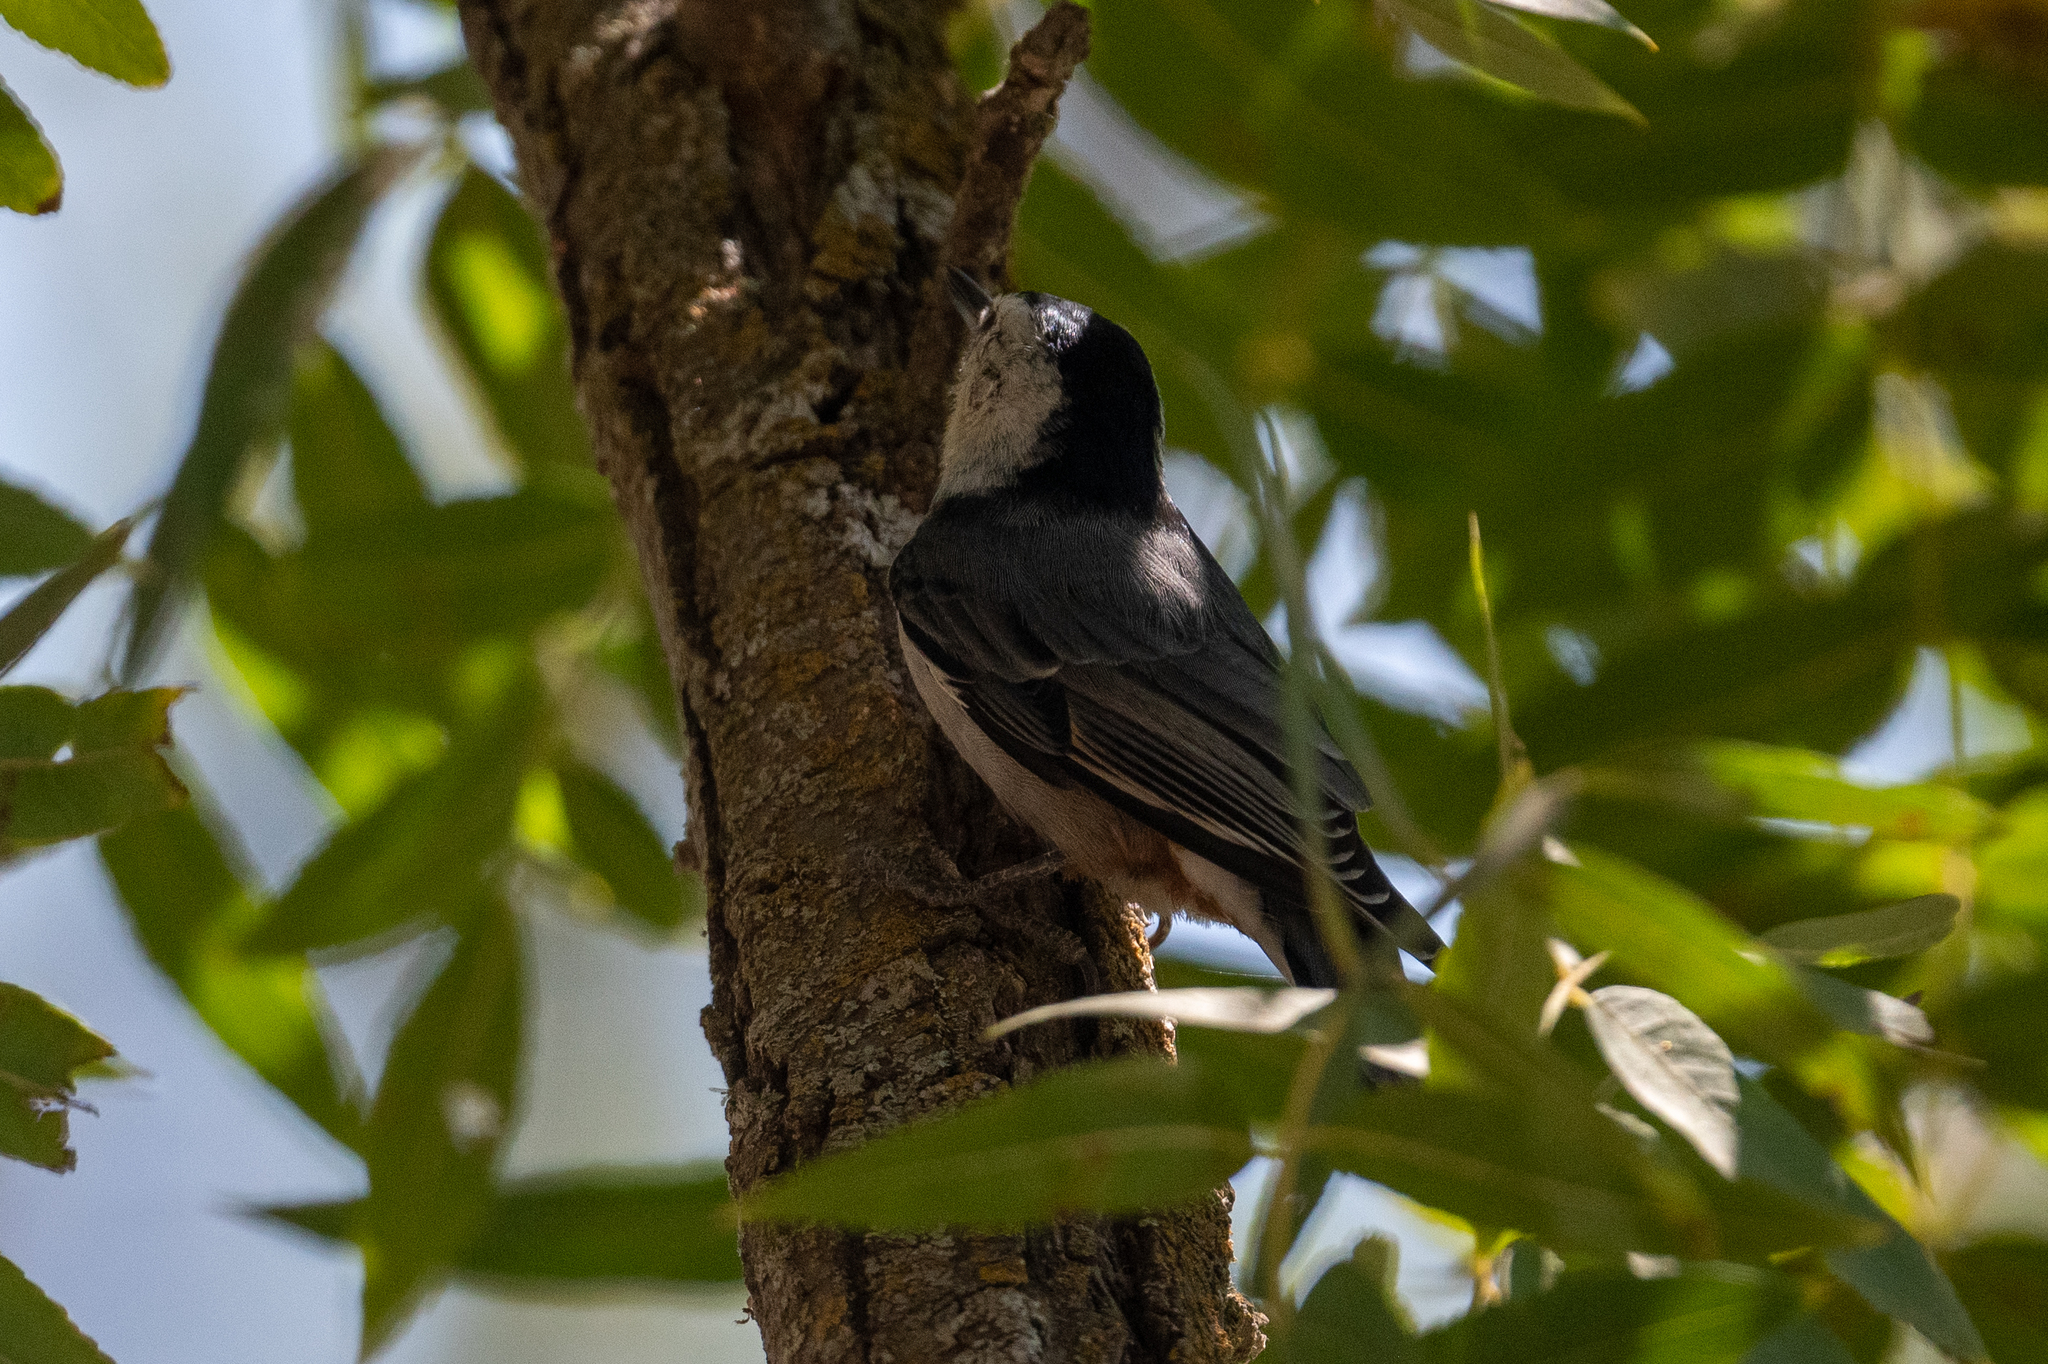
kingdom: Animalia
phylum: Chordata
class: Aves
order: Passeriformes
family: Sittidae
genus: Sitta
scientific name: Sitta carolinensis
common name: White-breasted nuthatch
